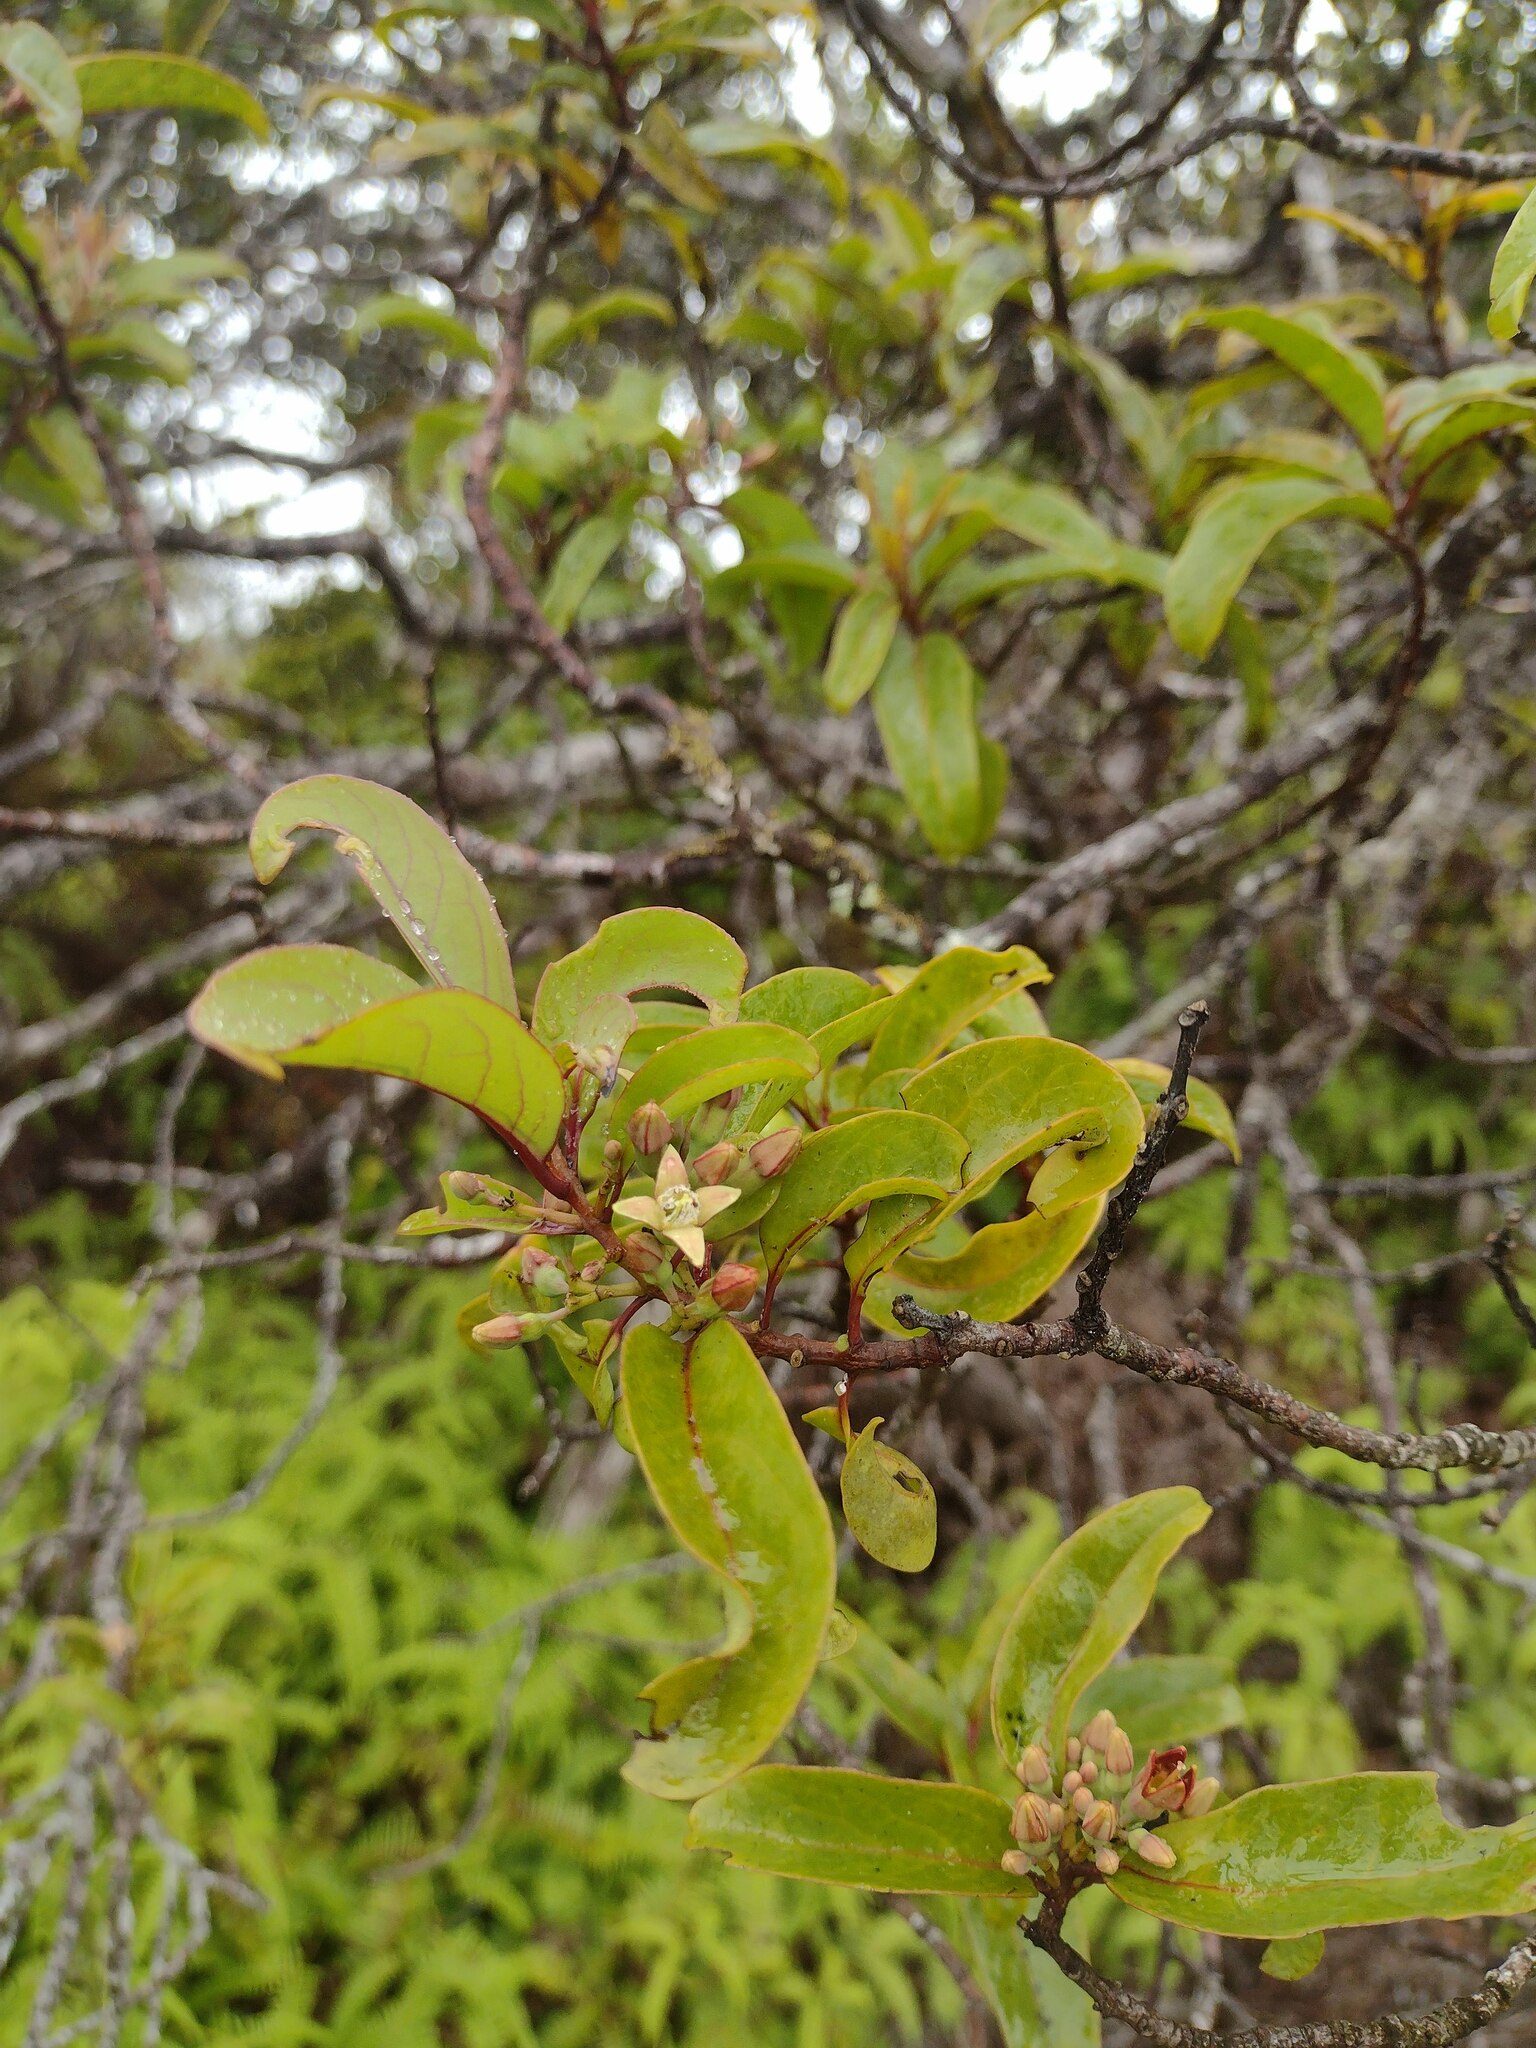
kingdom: Plantae
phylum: Tracheophyta
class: Magnoliopsida
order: Santalales
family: Santalaceae
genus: Santalum
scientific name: Santalum freycinetianum
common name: Lanai sandalwood
